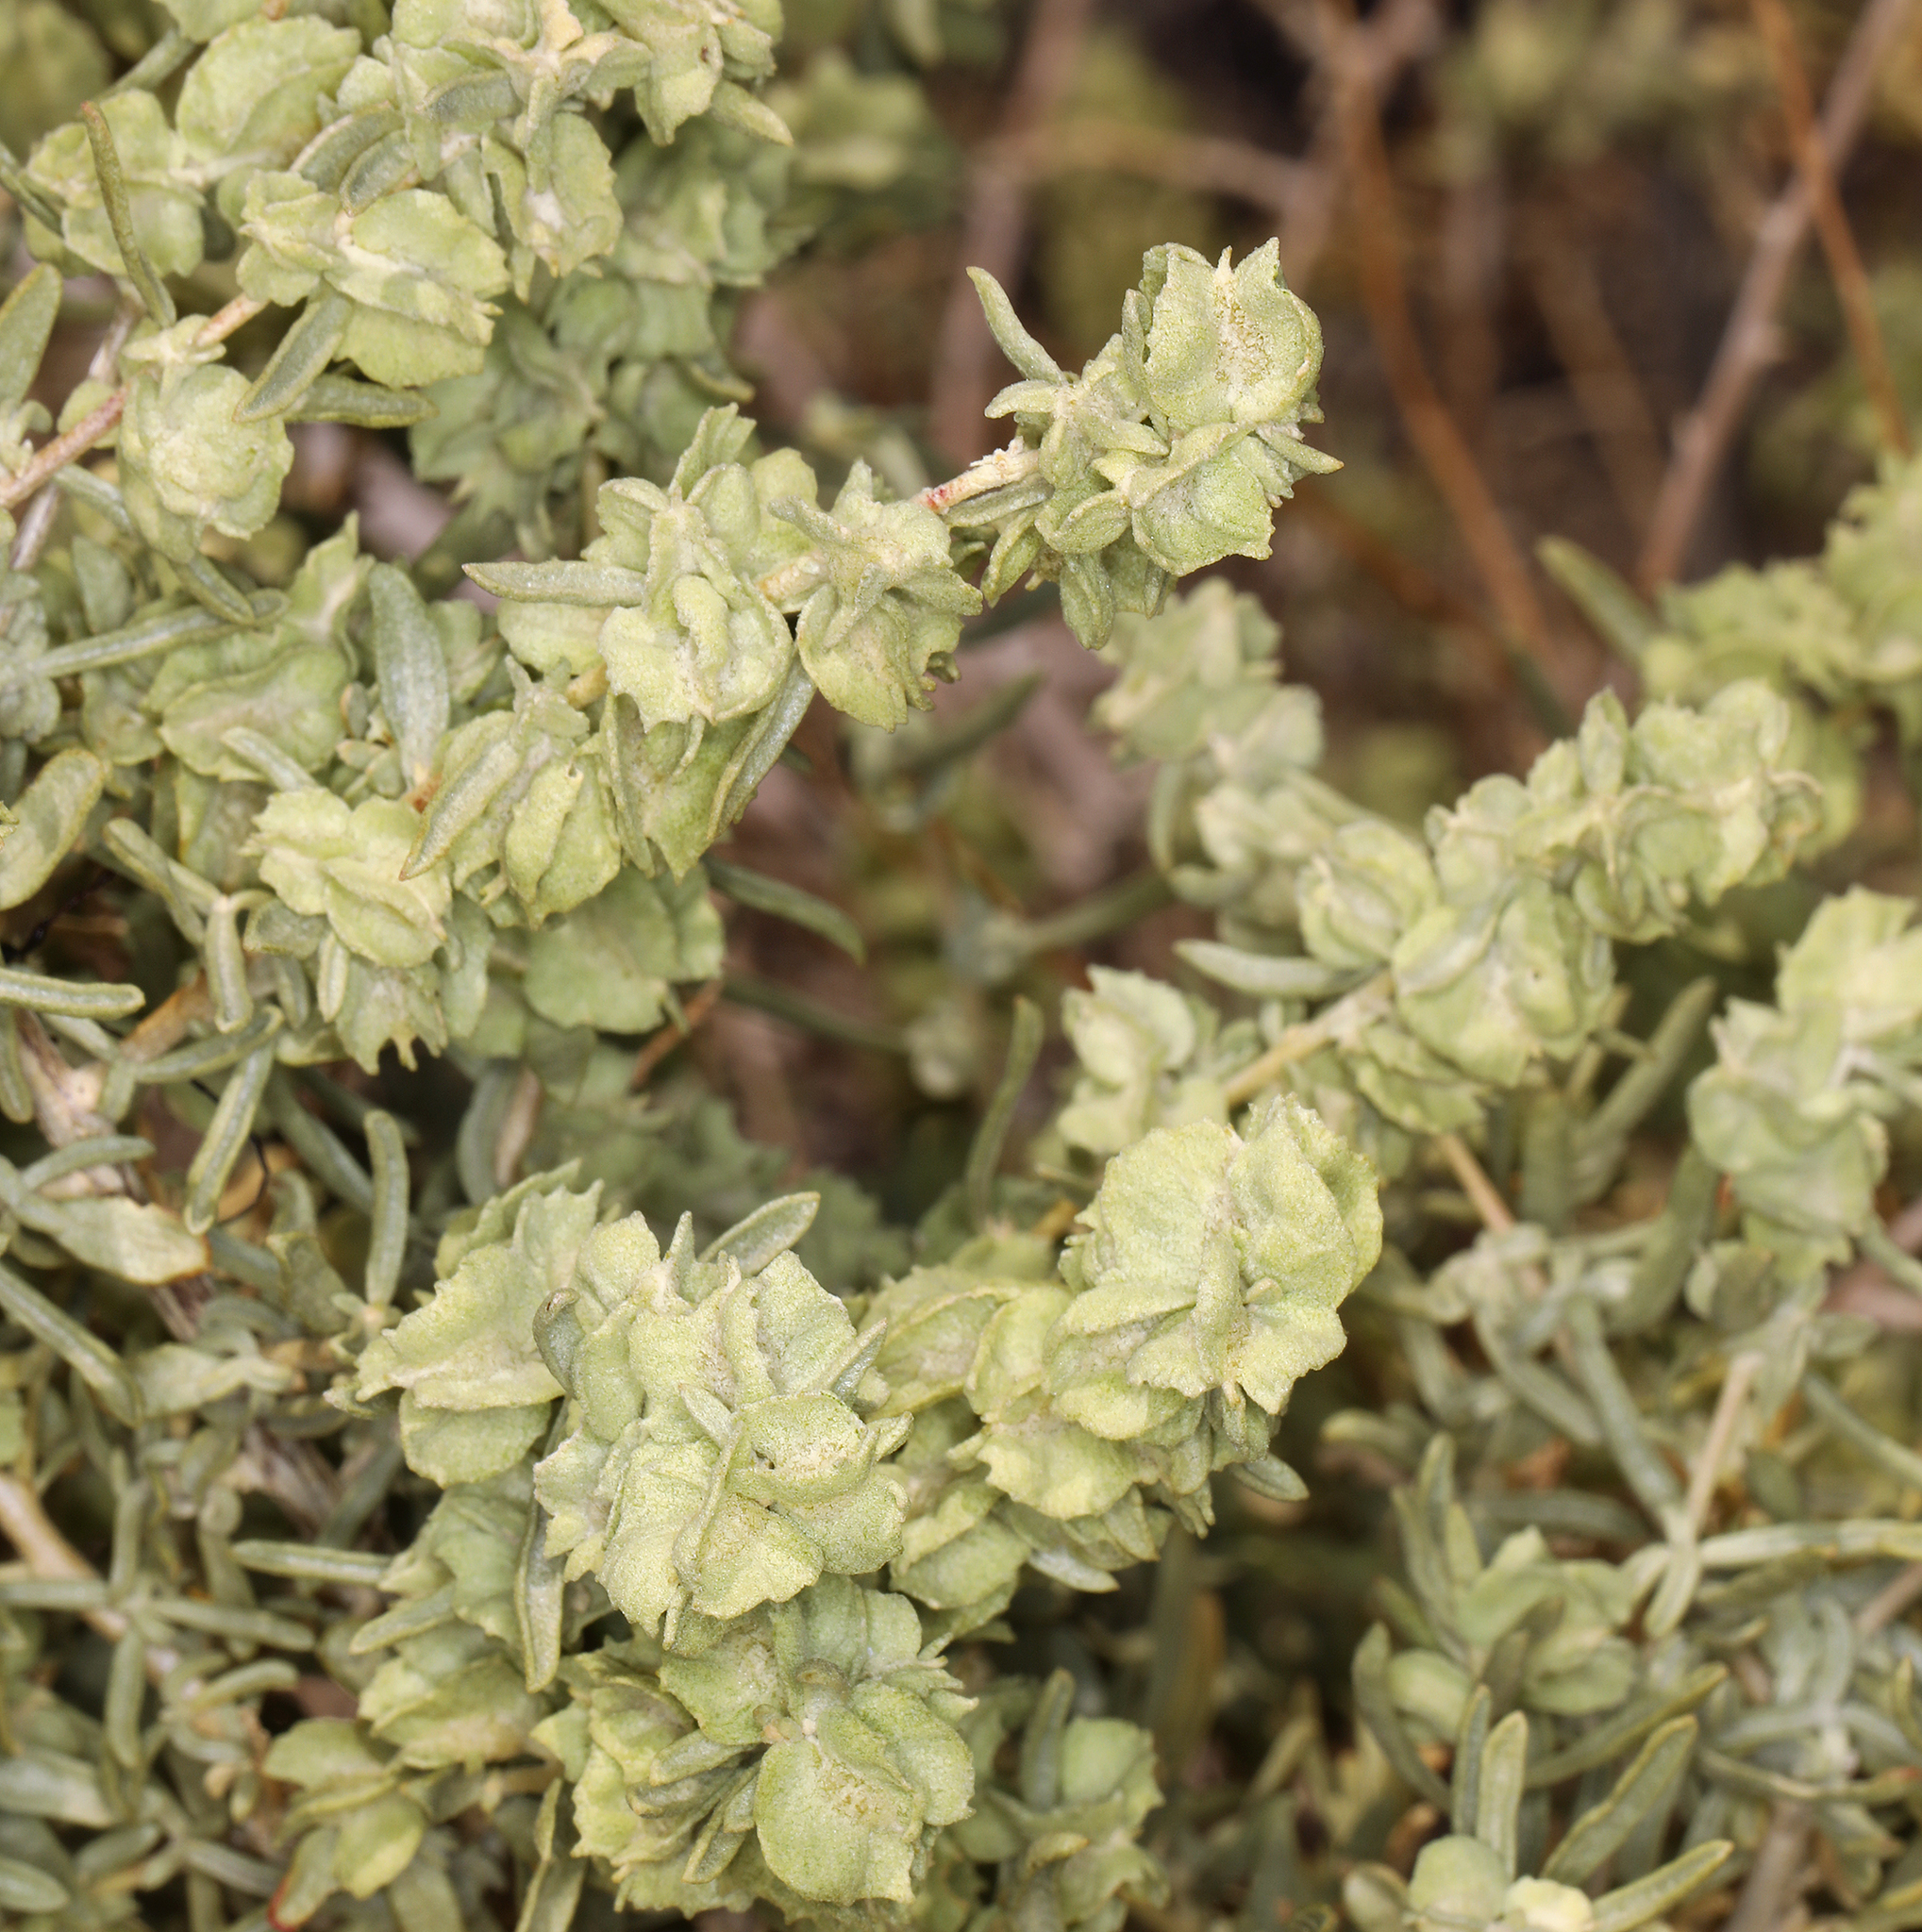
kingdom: Plantae
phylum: Tracheophyta
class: Magnoliopsida
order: Caryophyllales
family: Amaranthaceae
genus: Atriplex
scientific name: Atriplex canescens
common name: Four-wing saltbush
